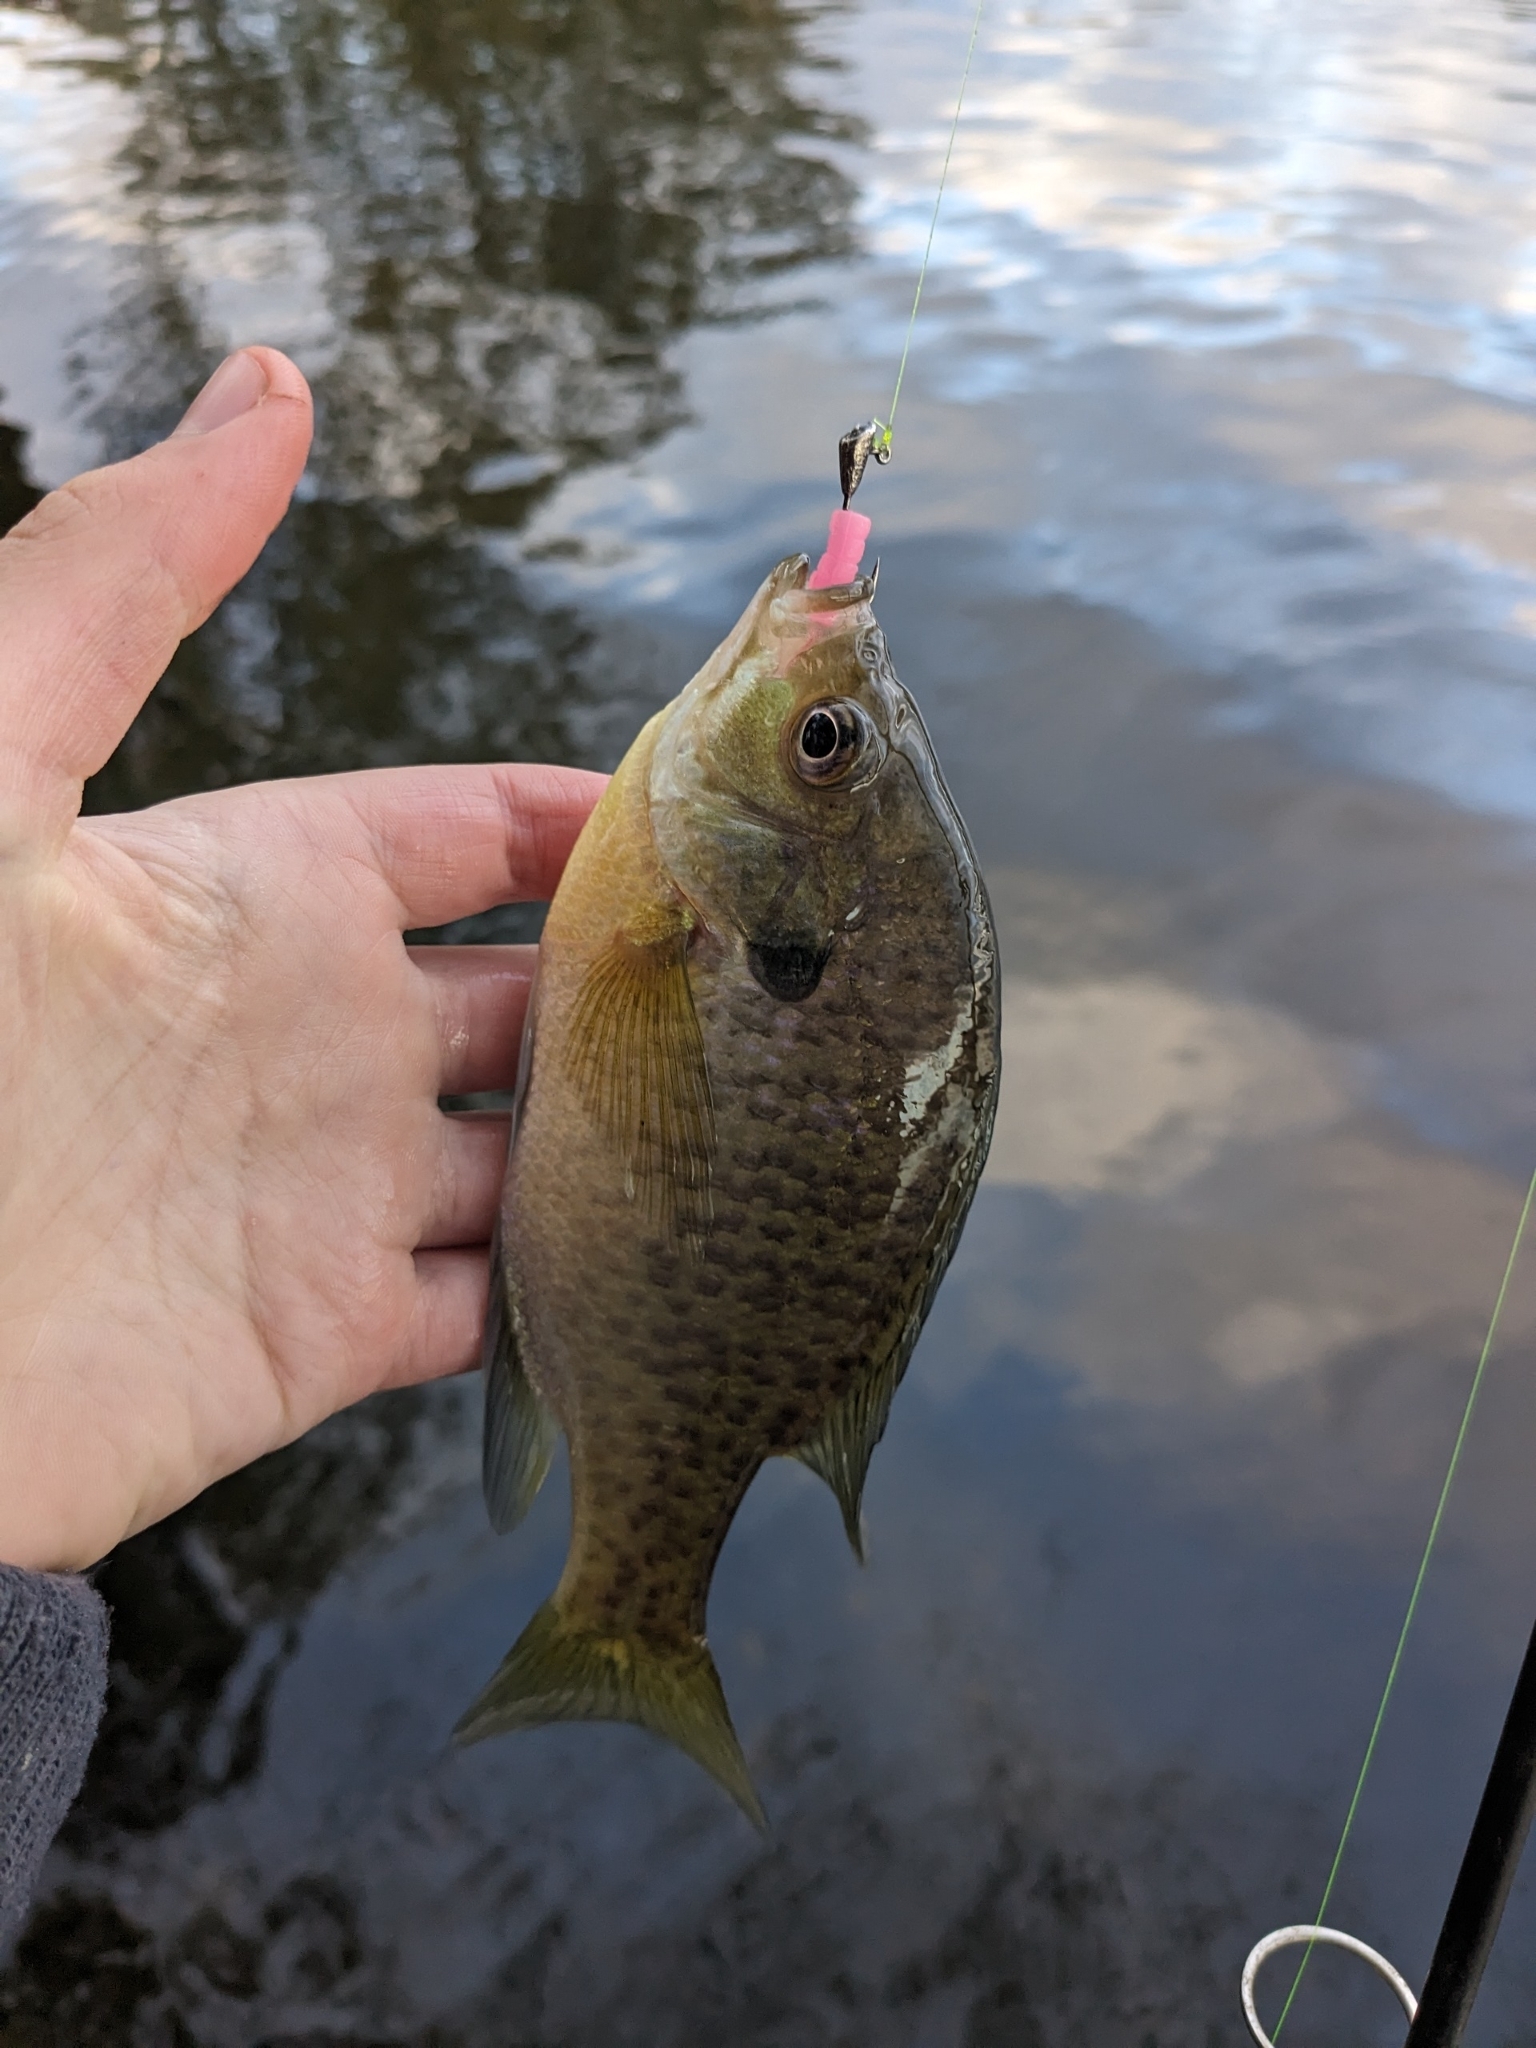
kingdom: Animalia
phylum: Chordata
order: Perciformes
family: Centrarchidae
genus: Lepomis
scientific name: Lepomis macrochirus
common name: Bluegill
